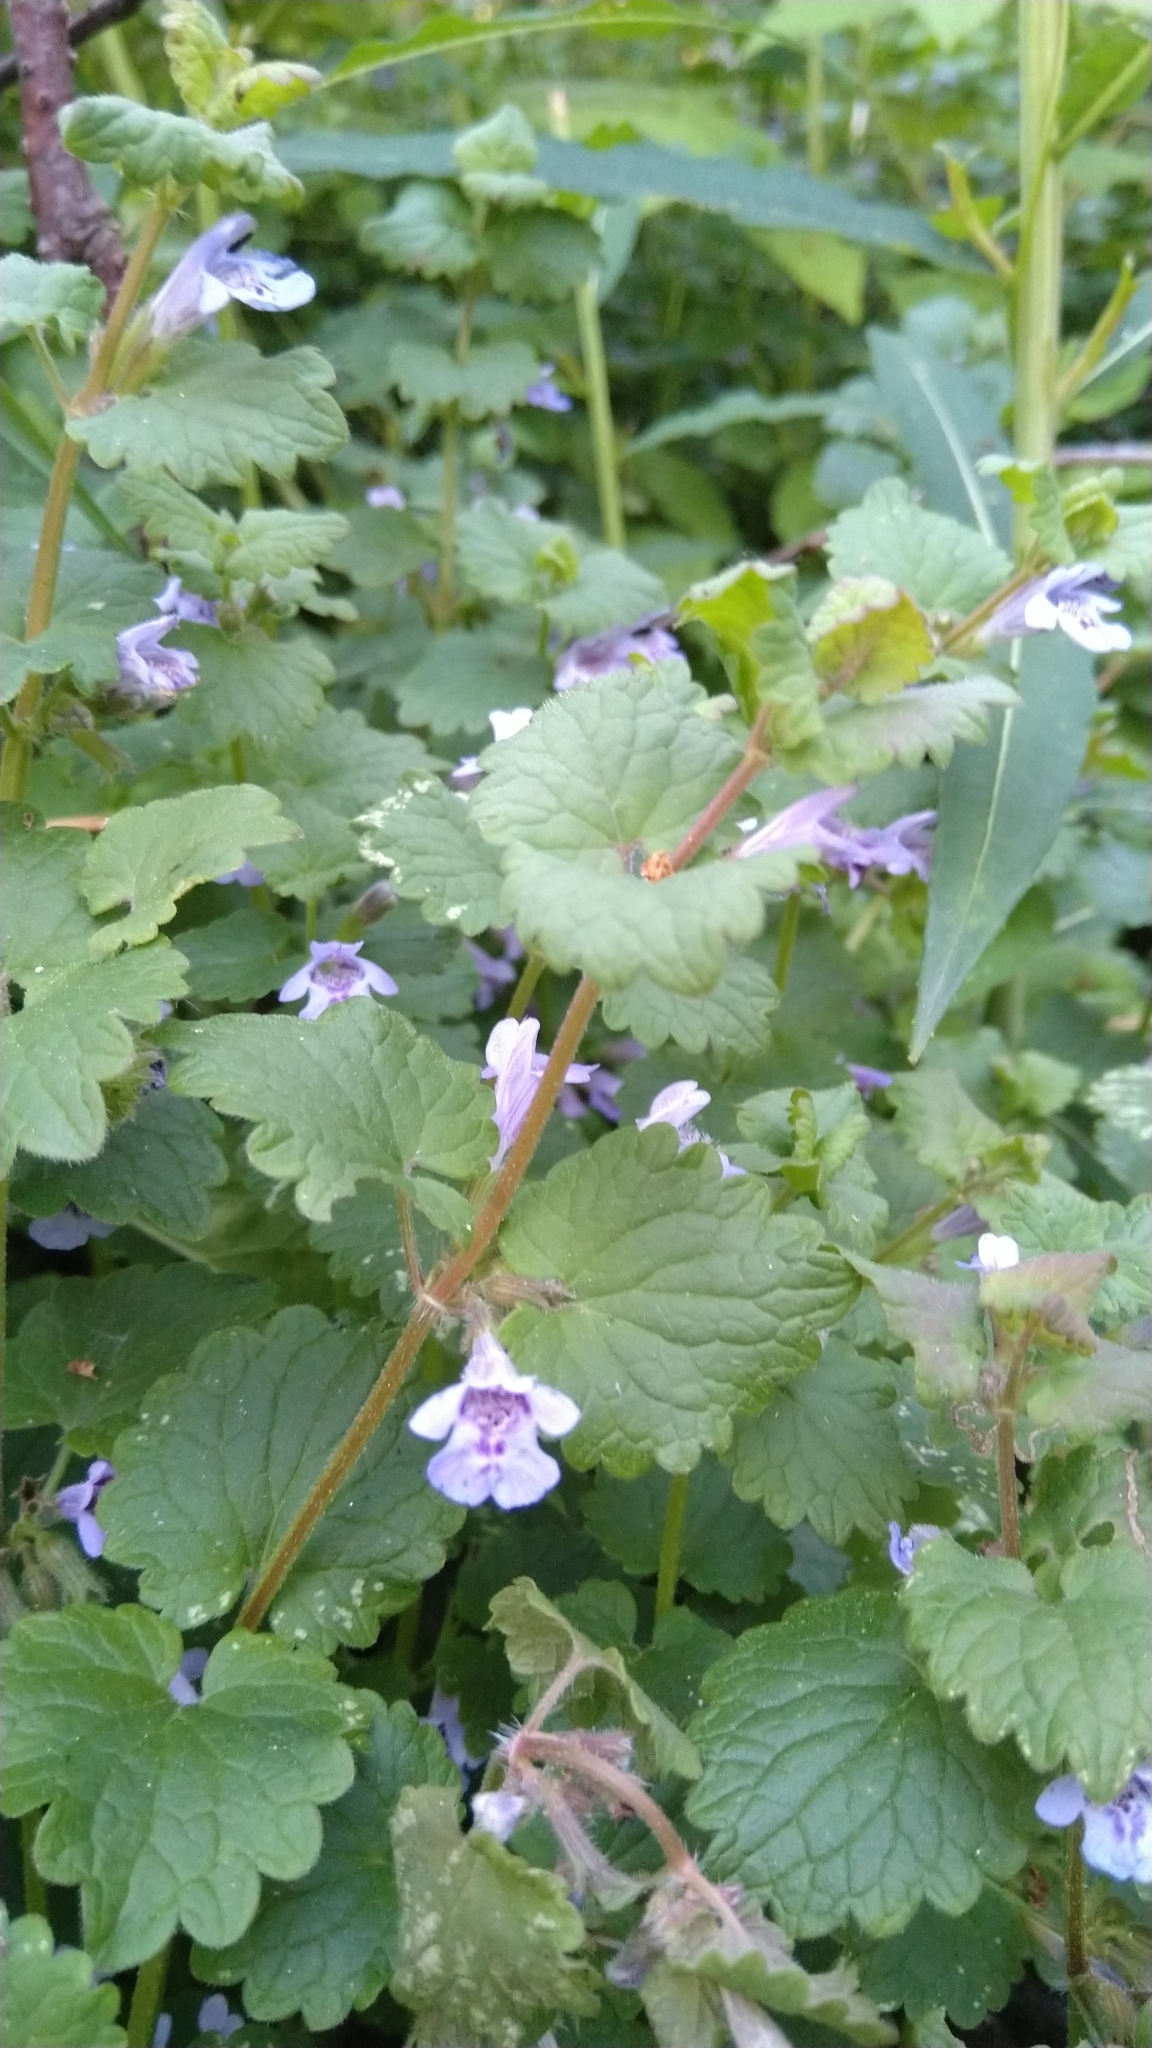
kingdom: Plantae
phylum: Tracheophyta
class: Magnoliopsida
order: Lamiales
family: Lamiaceae
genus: Glechoma
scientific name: Glechoma hederacea
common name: Ground ivy
